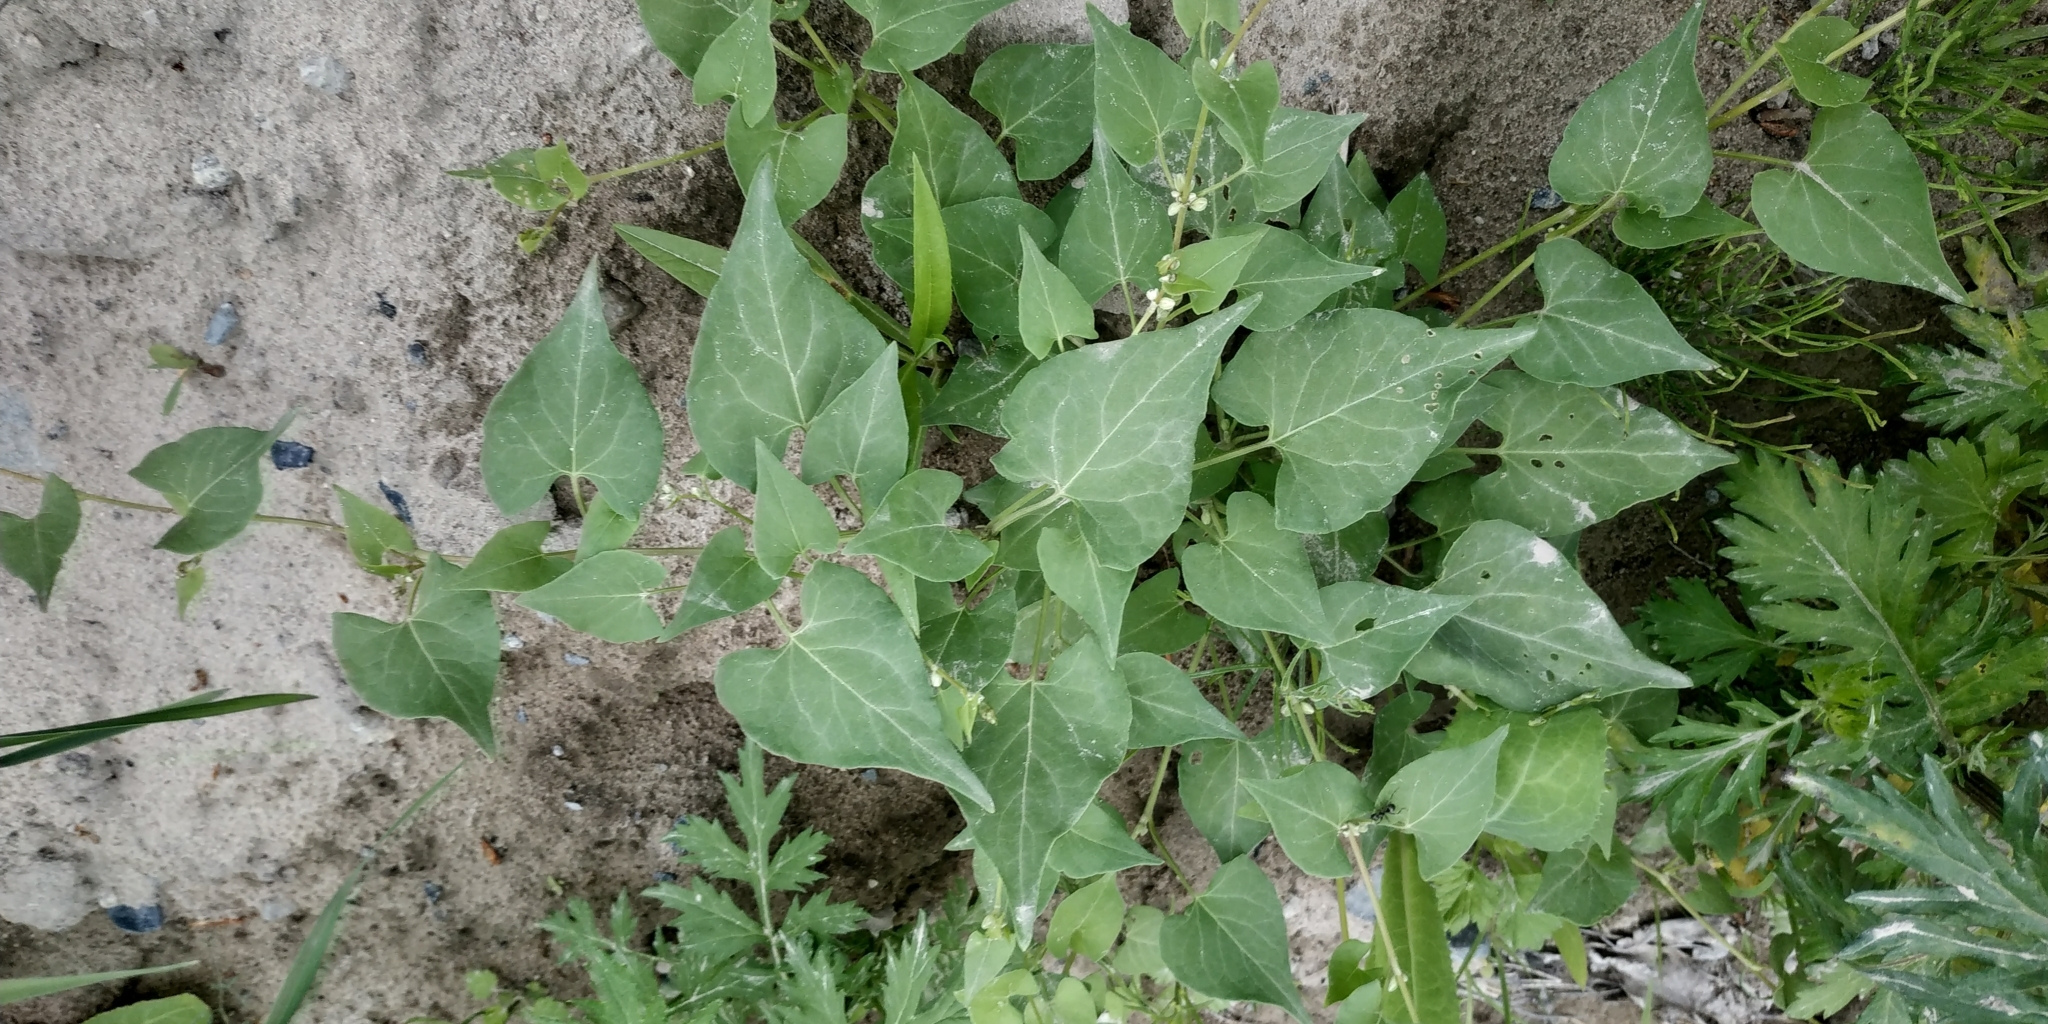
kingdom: Plantae
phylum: Tracheophyta
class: Magnoliopsida
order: Caryophyllales
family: Polygonaceae
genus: Fallopia
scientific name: Fallopia convolvulus
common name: Black bindweed
